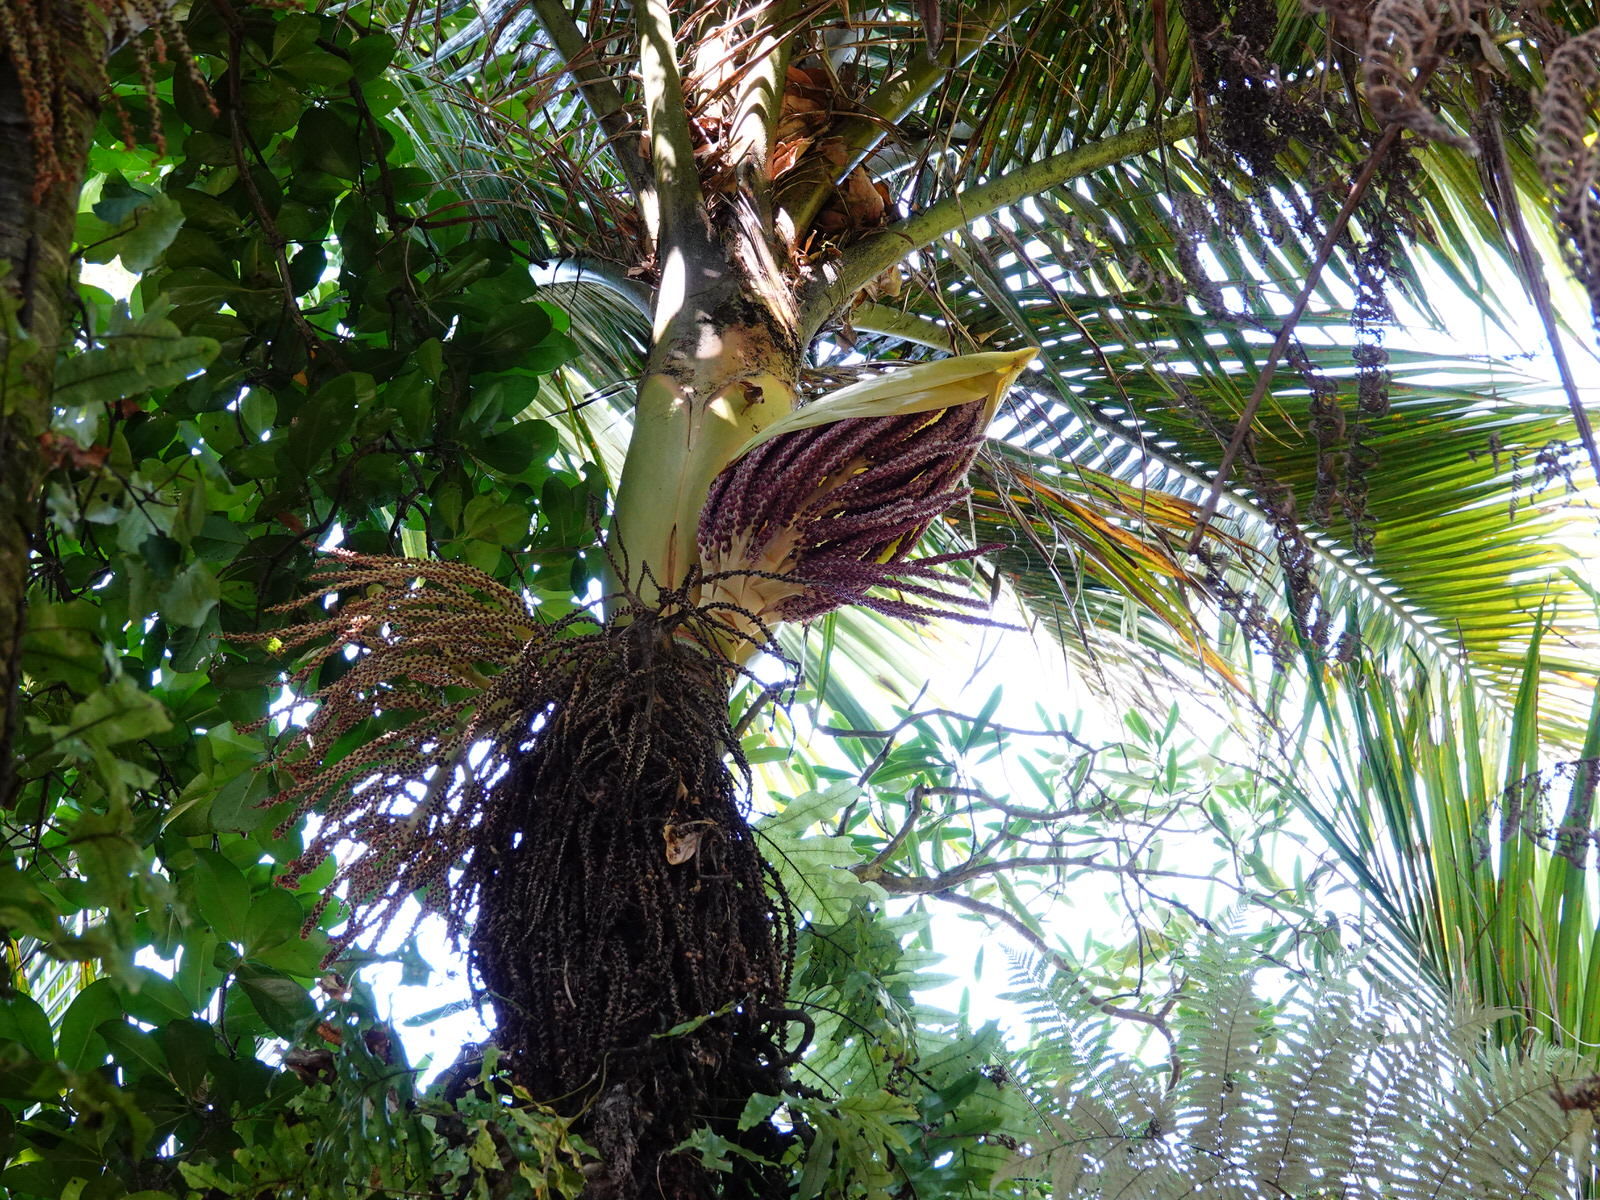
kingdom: Plantae
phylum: Tracheophyta
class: Liliopsida
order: Arecales
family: Arecaceae
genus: Rhopalostylis
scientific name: Rhopalostylis sapida
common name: Feather-duster palm
